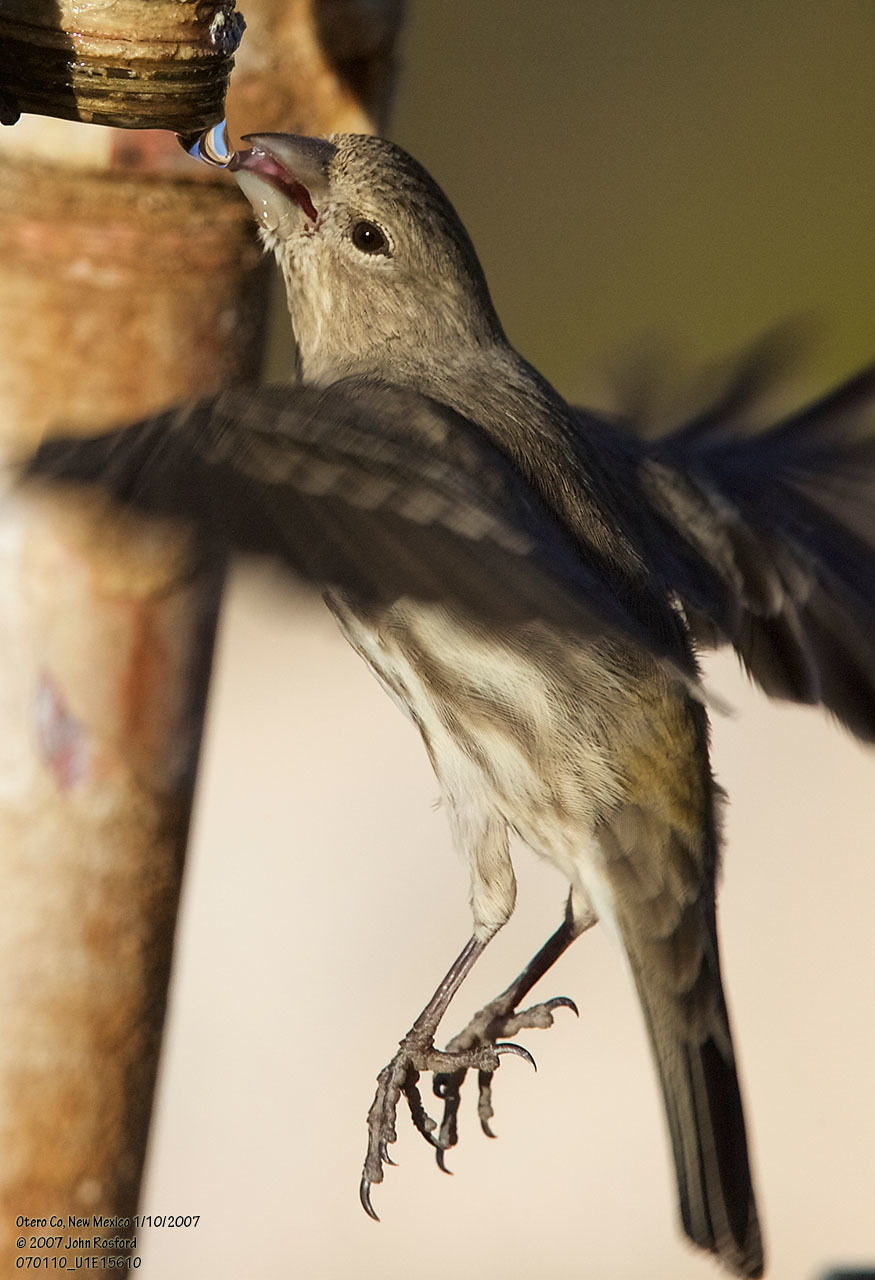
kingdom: Animalia
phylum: Chordata
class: Aves
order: Passeriformes
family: Fringillidae
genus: Haemorhous
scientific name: Haemorhous mexicanus
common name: House finch
